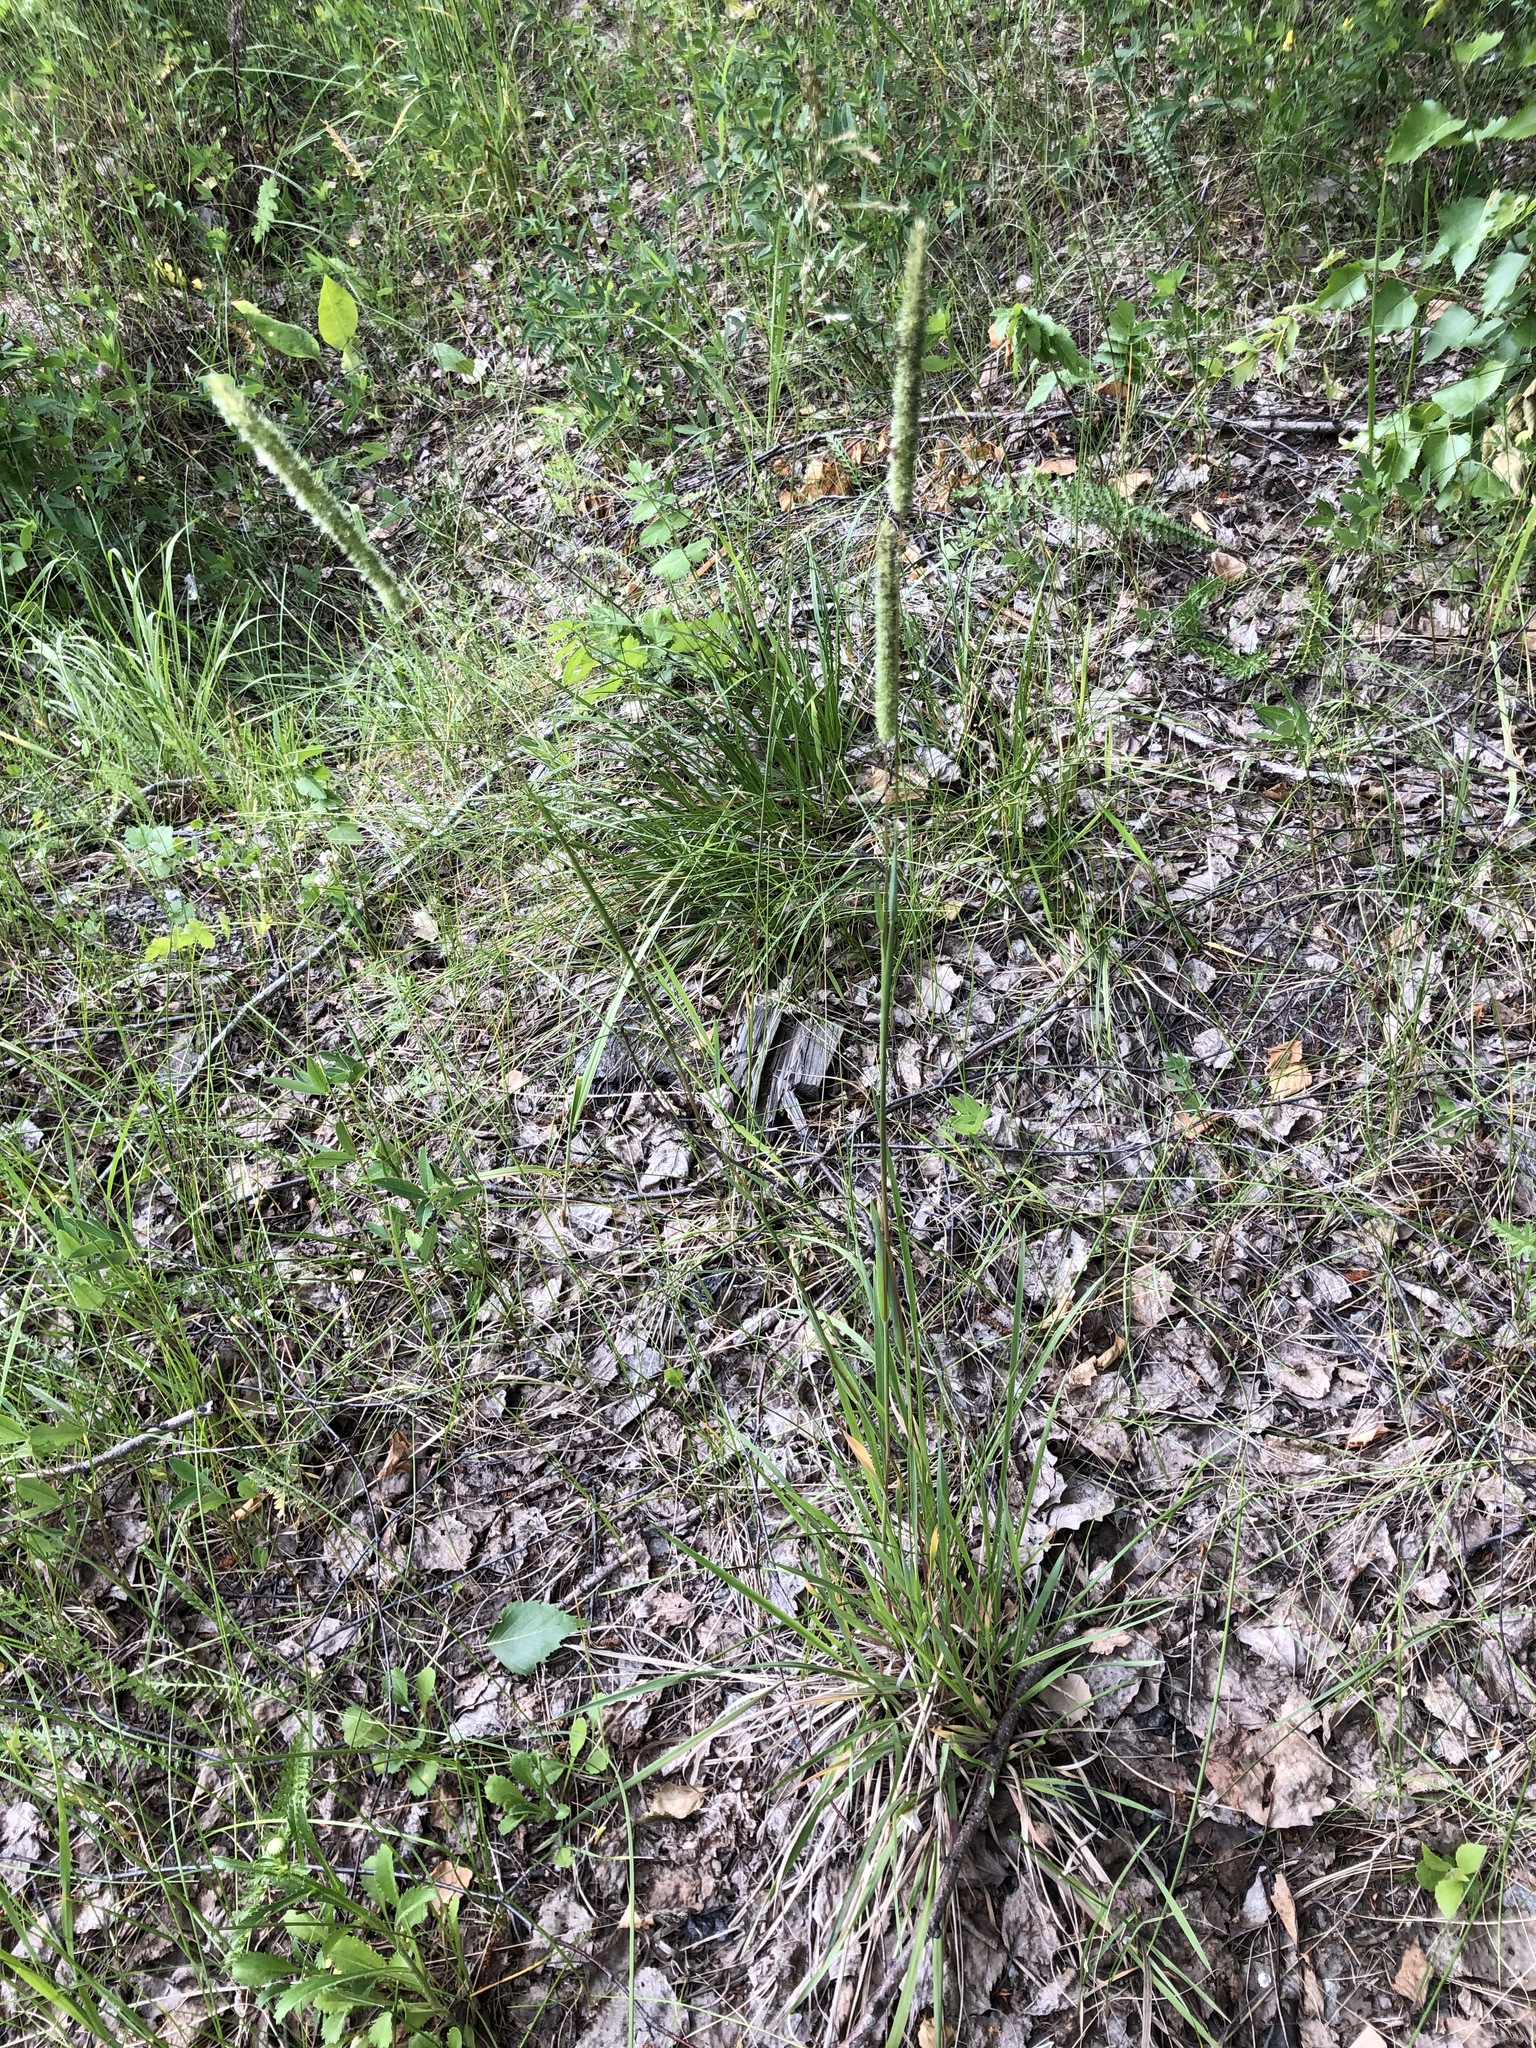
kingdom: Plantae
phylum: Tracheophyta
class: Liliopsida
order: Poales
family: Poaceae
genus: Phleum
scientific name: Phleum phleoides
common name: Purple-stem cat's-tail
